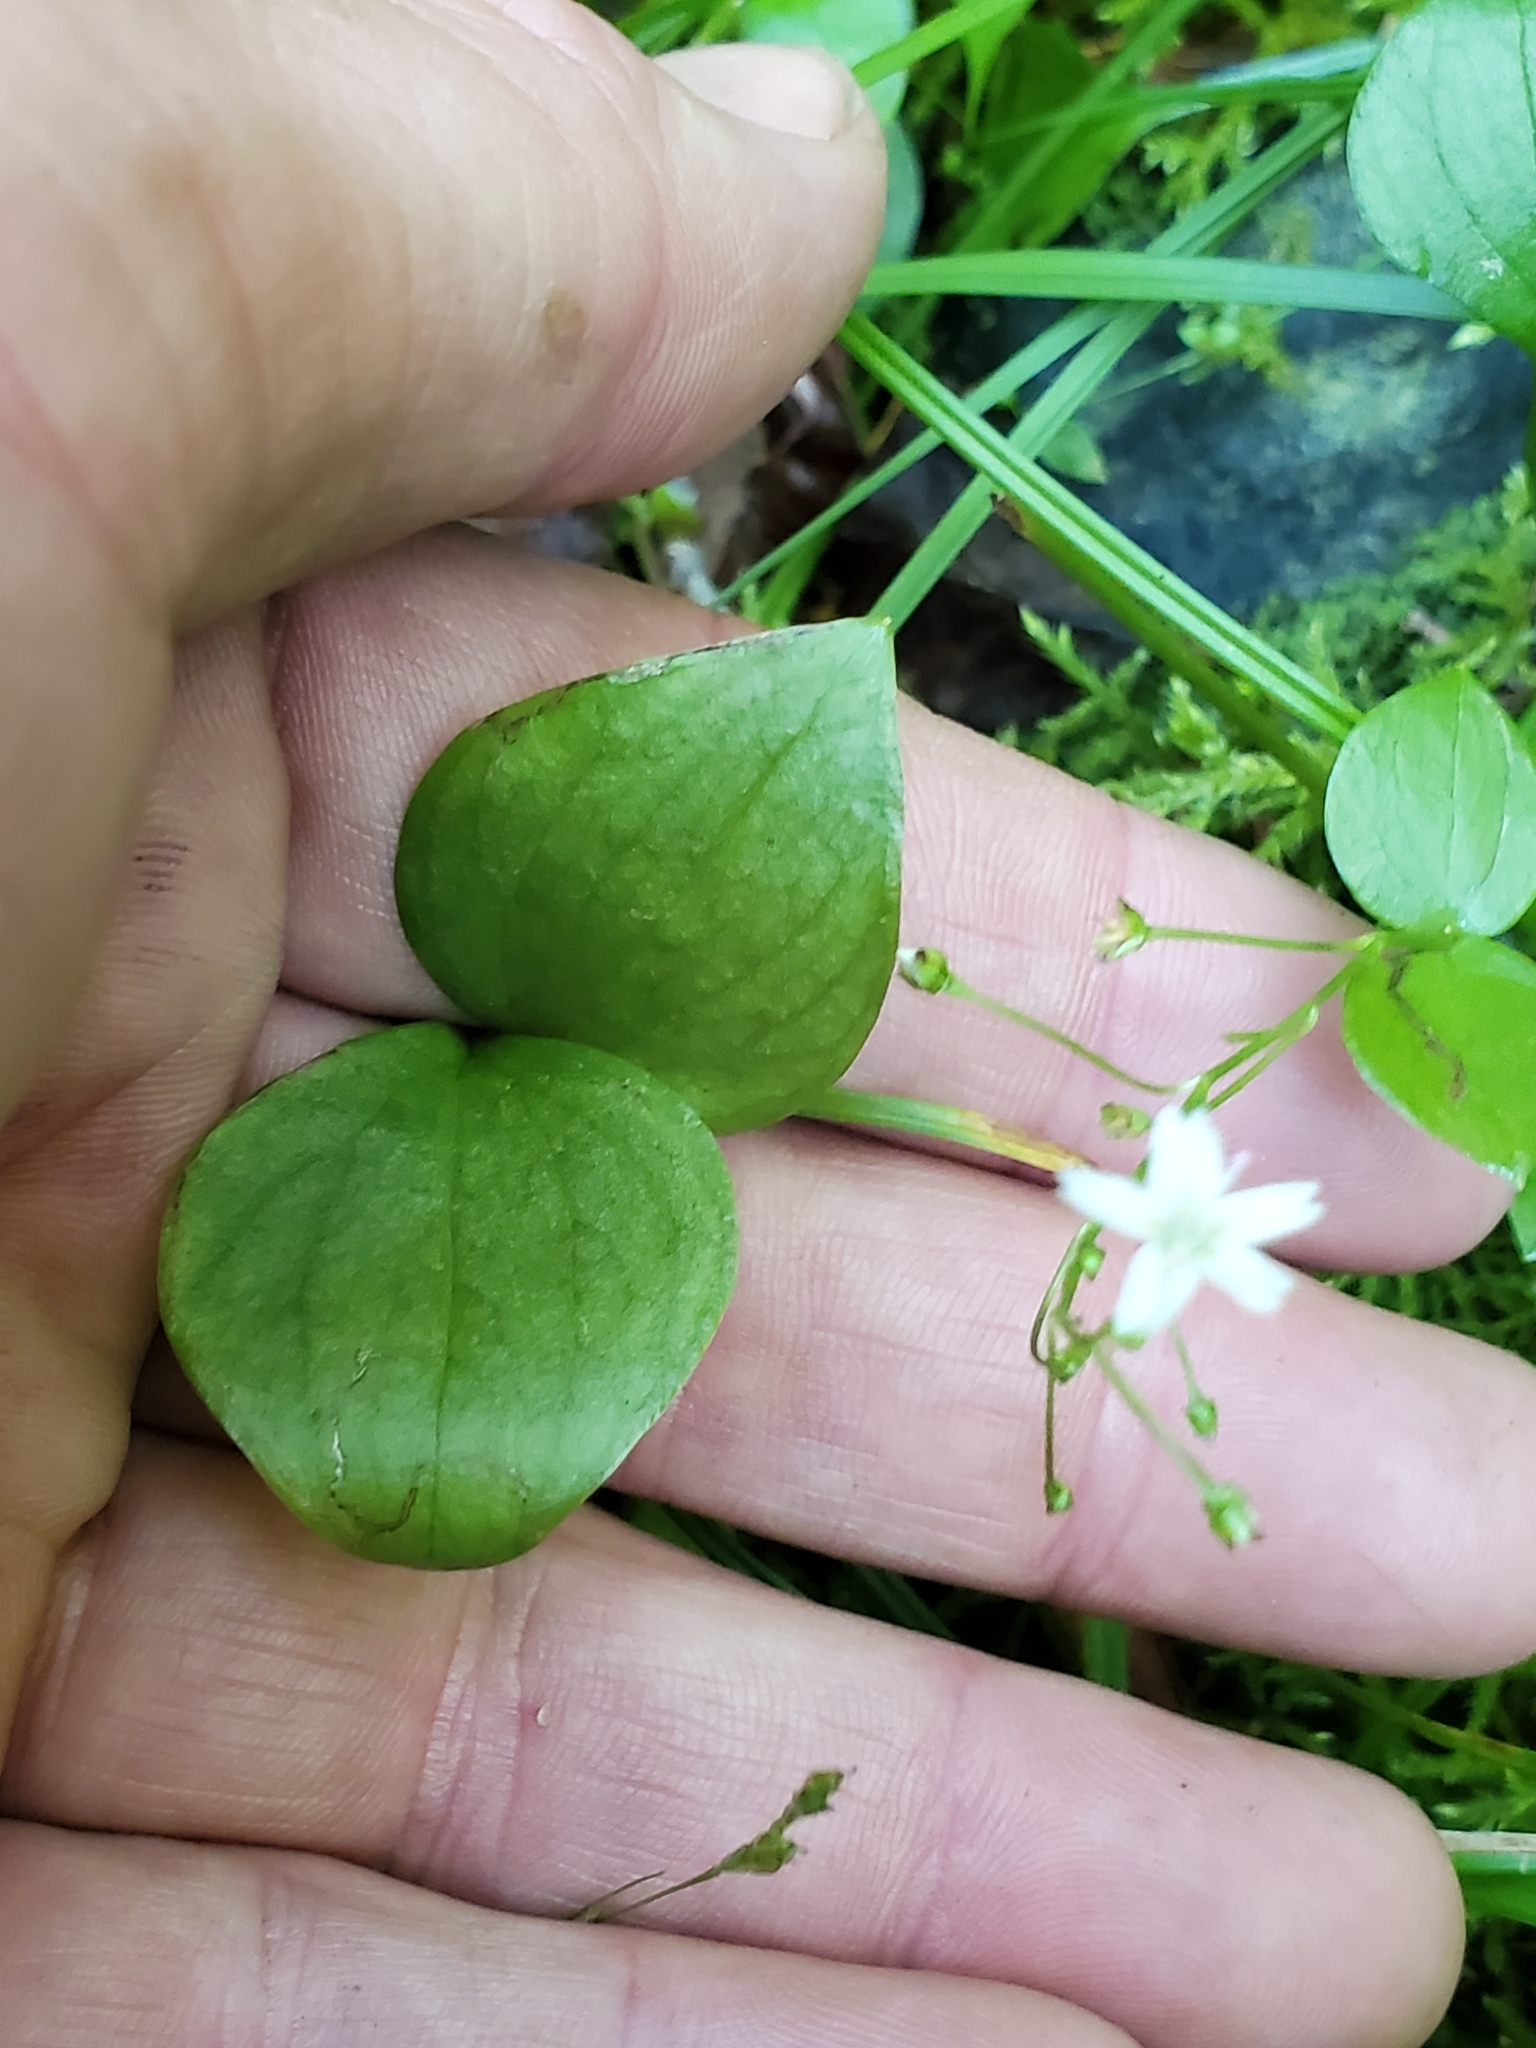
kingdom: Plantae
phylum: Tracheophyta
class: Magnoliopsida
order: Caryophyllales
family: Montiaceae
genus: Claytonia
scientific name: Claytonia sibirica
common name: Pink purslane
